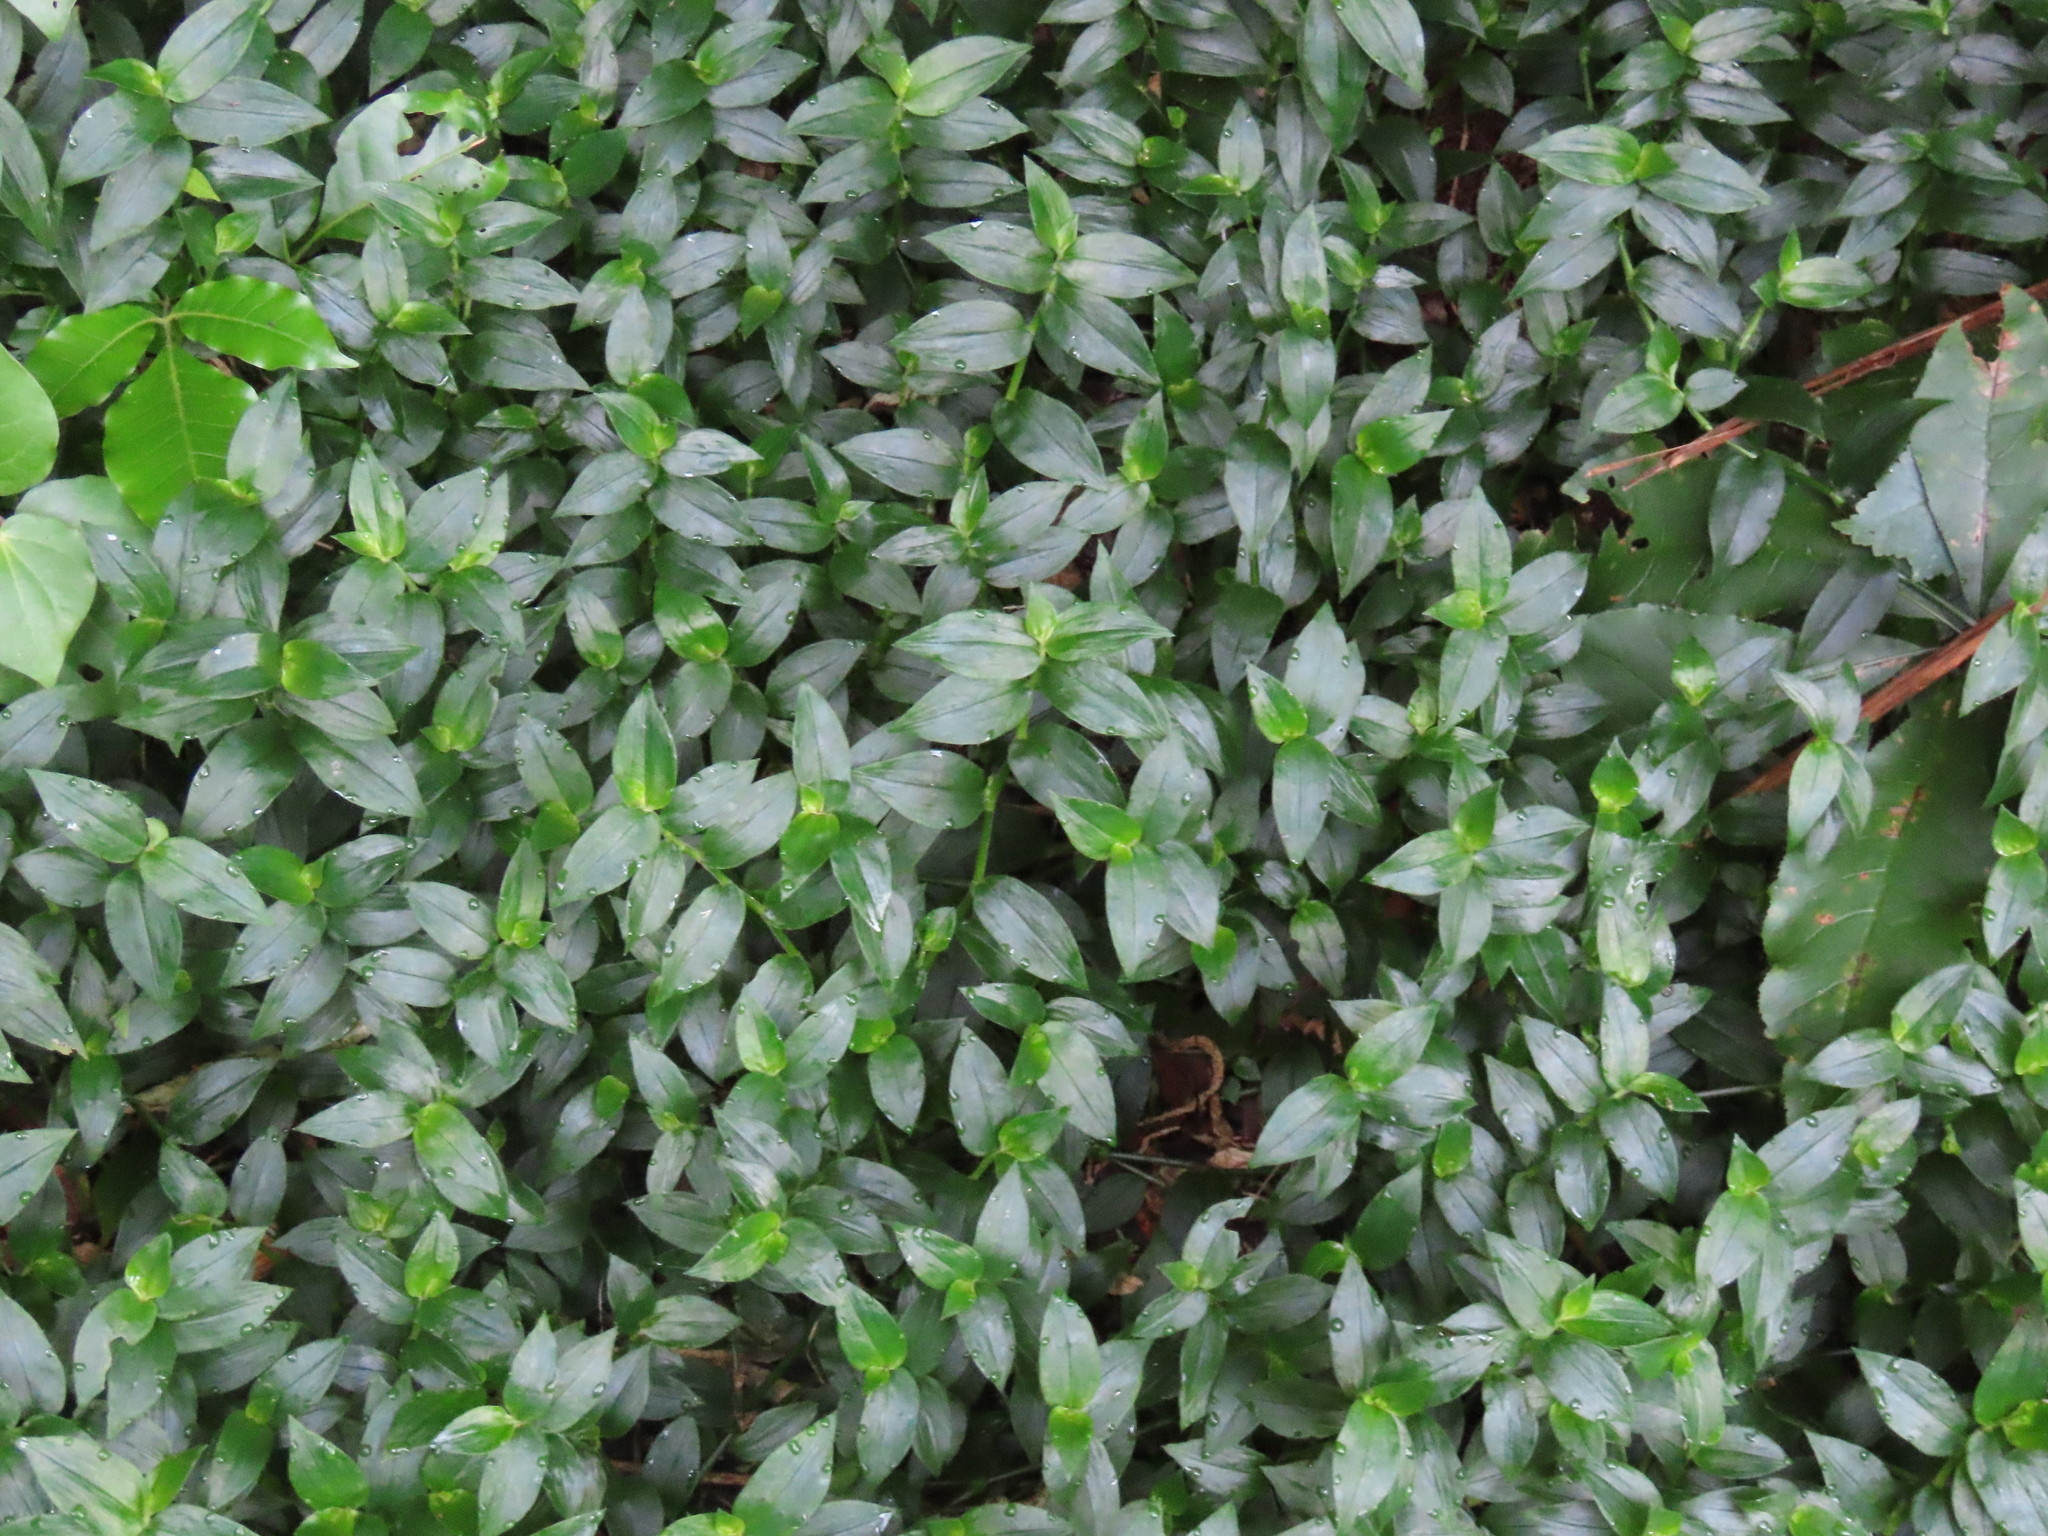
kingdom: Plantae
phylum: Tracheophyta
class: Liliopsida
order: Commelinales
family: Commelinaceae
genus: Tradescantia
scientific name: Tradescantia fluminensis
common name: Wandering-jew
